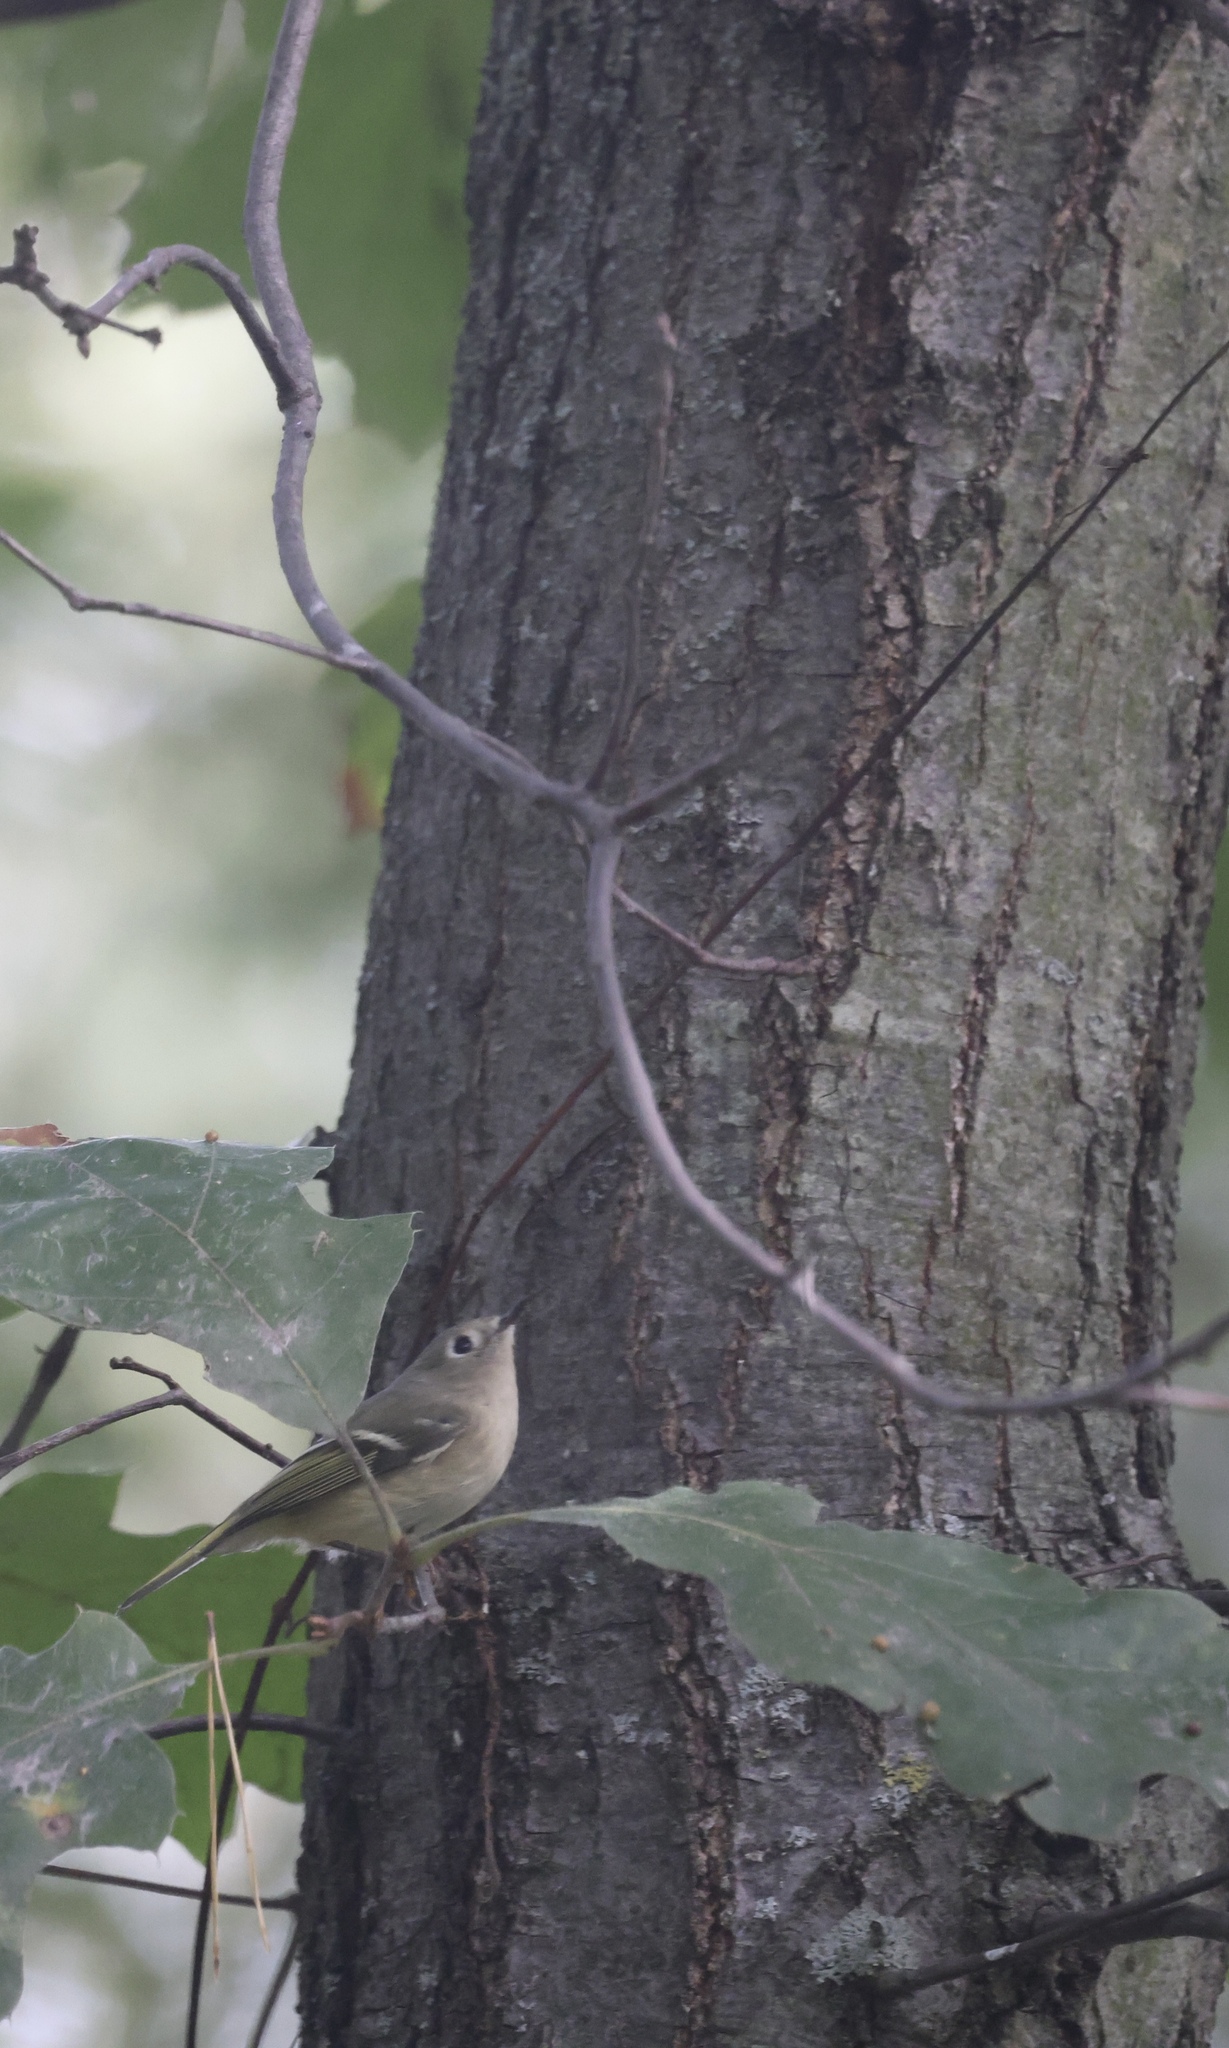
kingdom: Animalia
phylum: Chordata
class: Aves
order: Passeriformes
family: Regulidae
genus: Regulus
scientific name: Regulus calendula
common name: Ruby-crowned kinglet
